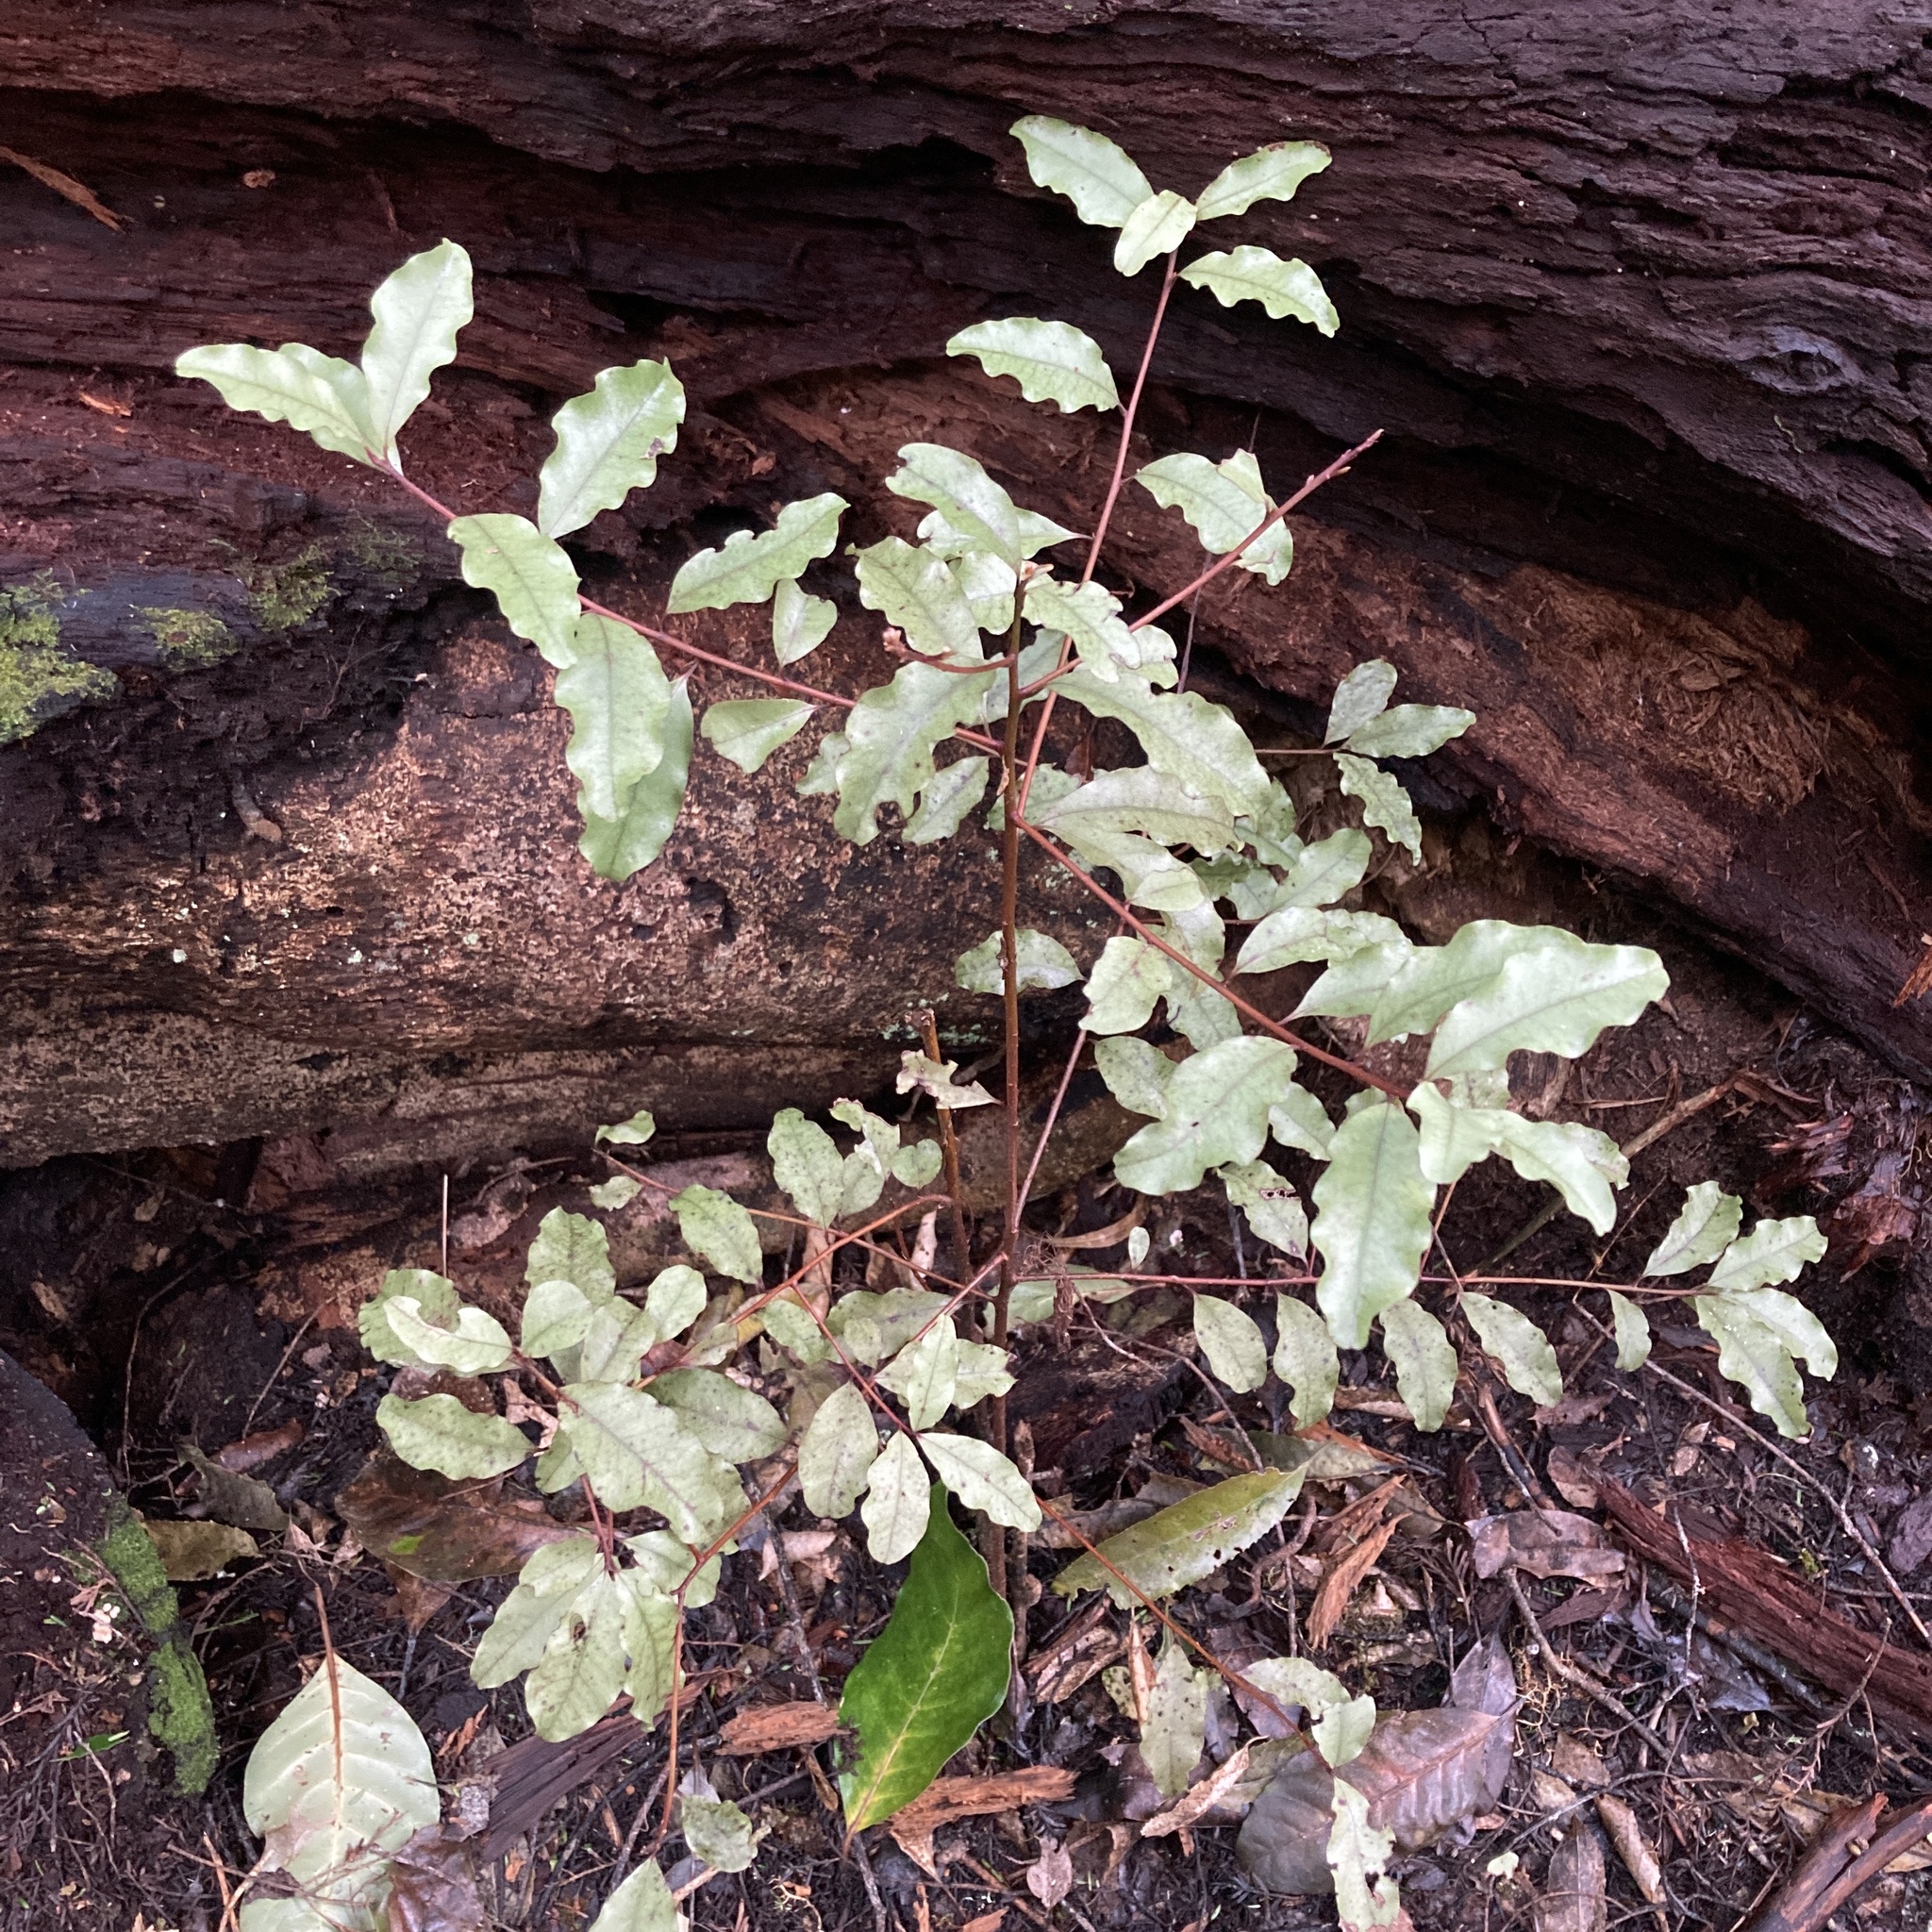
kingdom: Plantae
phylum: Tracheophyta
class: Magnoliopsida
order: Ericales
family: Primulaceae
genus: Myrsine
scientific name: Myrsine australis
